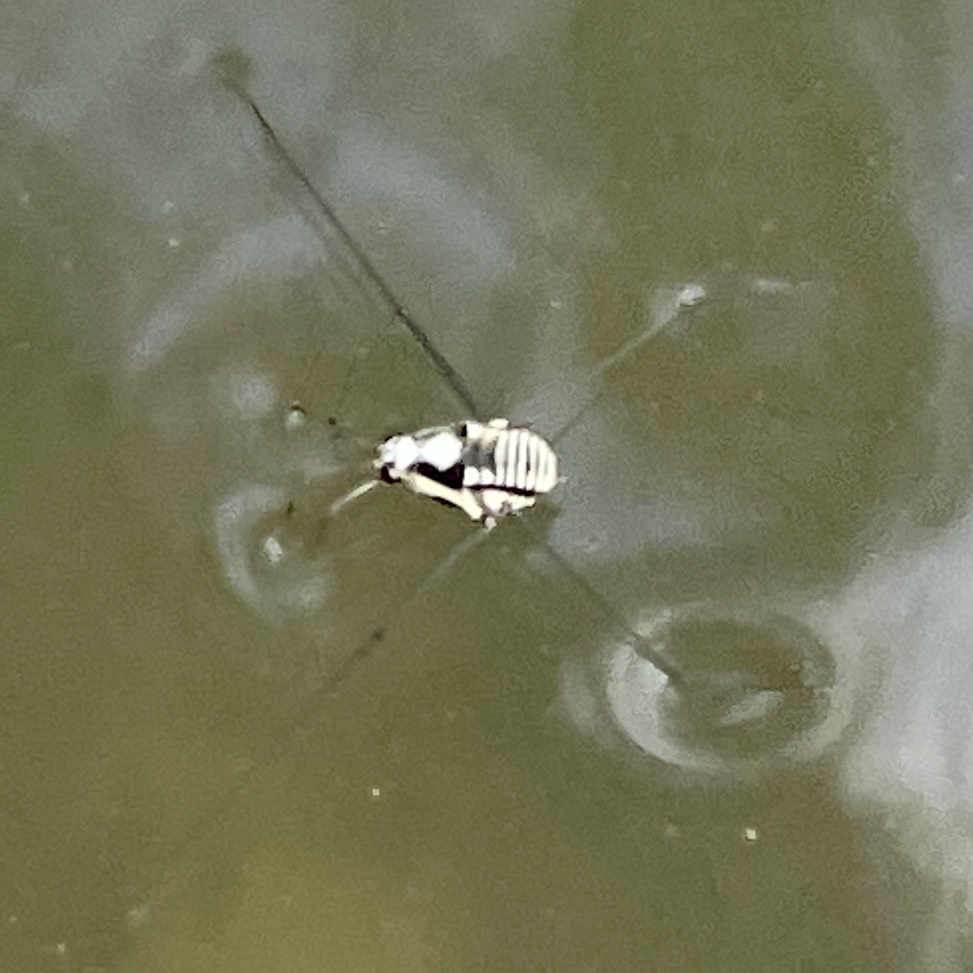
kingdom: Animalia
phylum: Arthropoda
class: Insecta
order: Hemiptera
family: Gerridae
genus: Metrobates
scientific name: Metrobates
